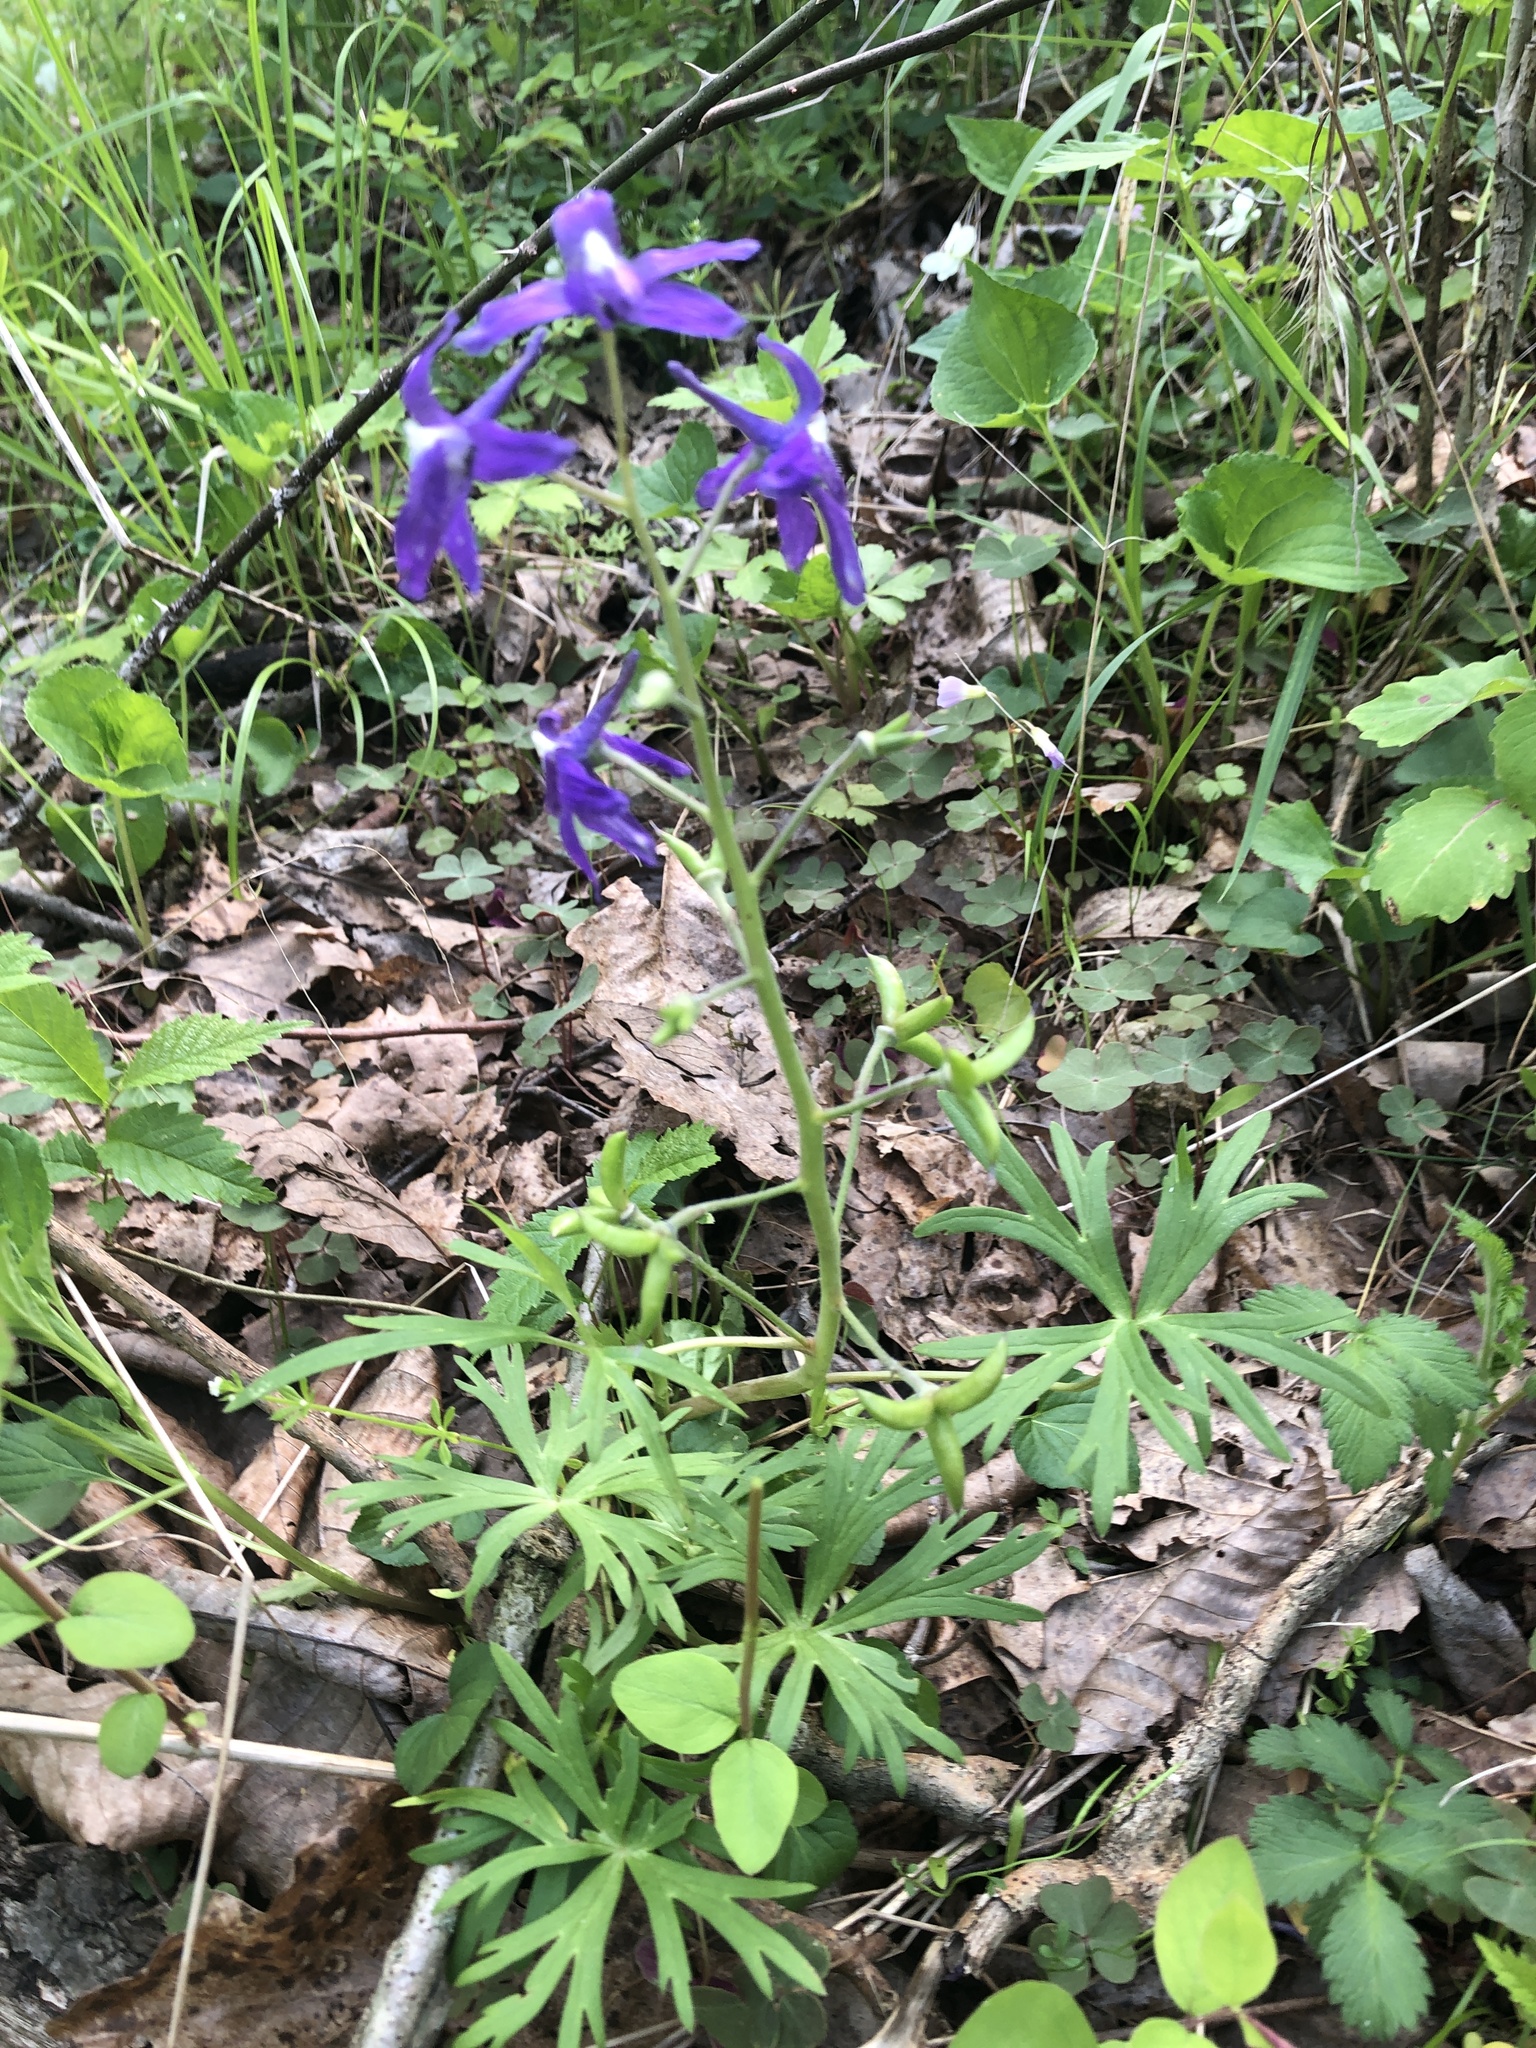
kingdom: Plantae
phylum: Tracheophyta
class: Magnoliopsida
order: Ranunculales
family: Ranunculaceae
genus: Delphinium
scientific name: Delphinium tricorne
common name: Dwarf larkspur
